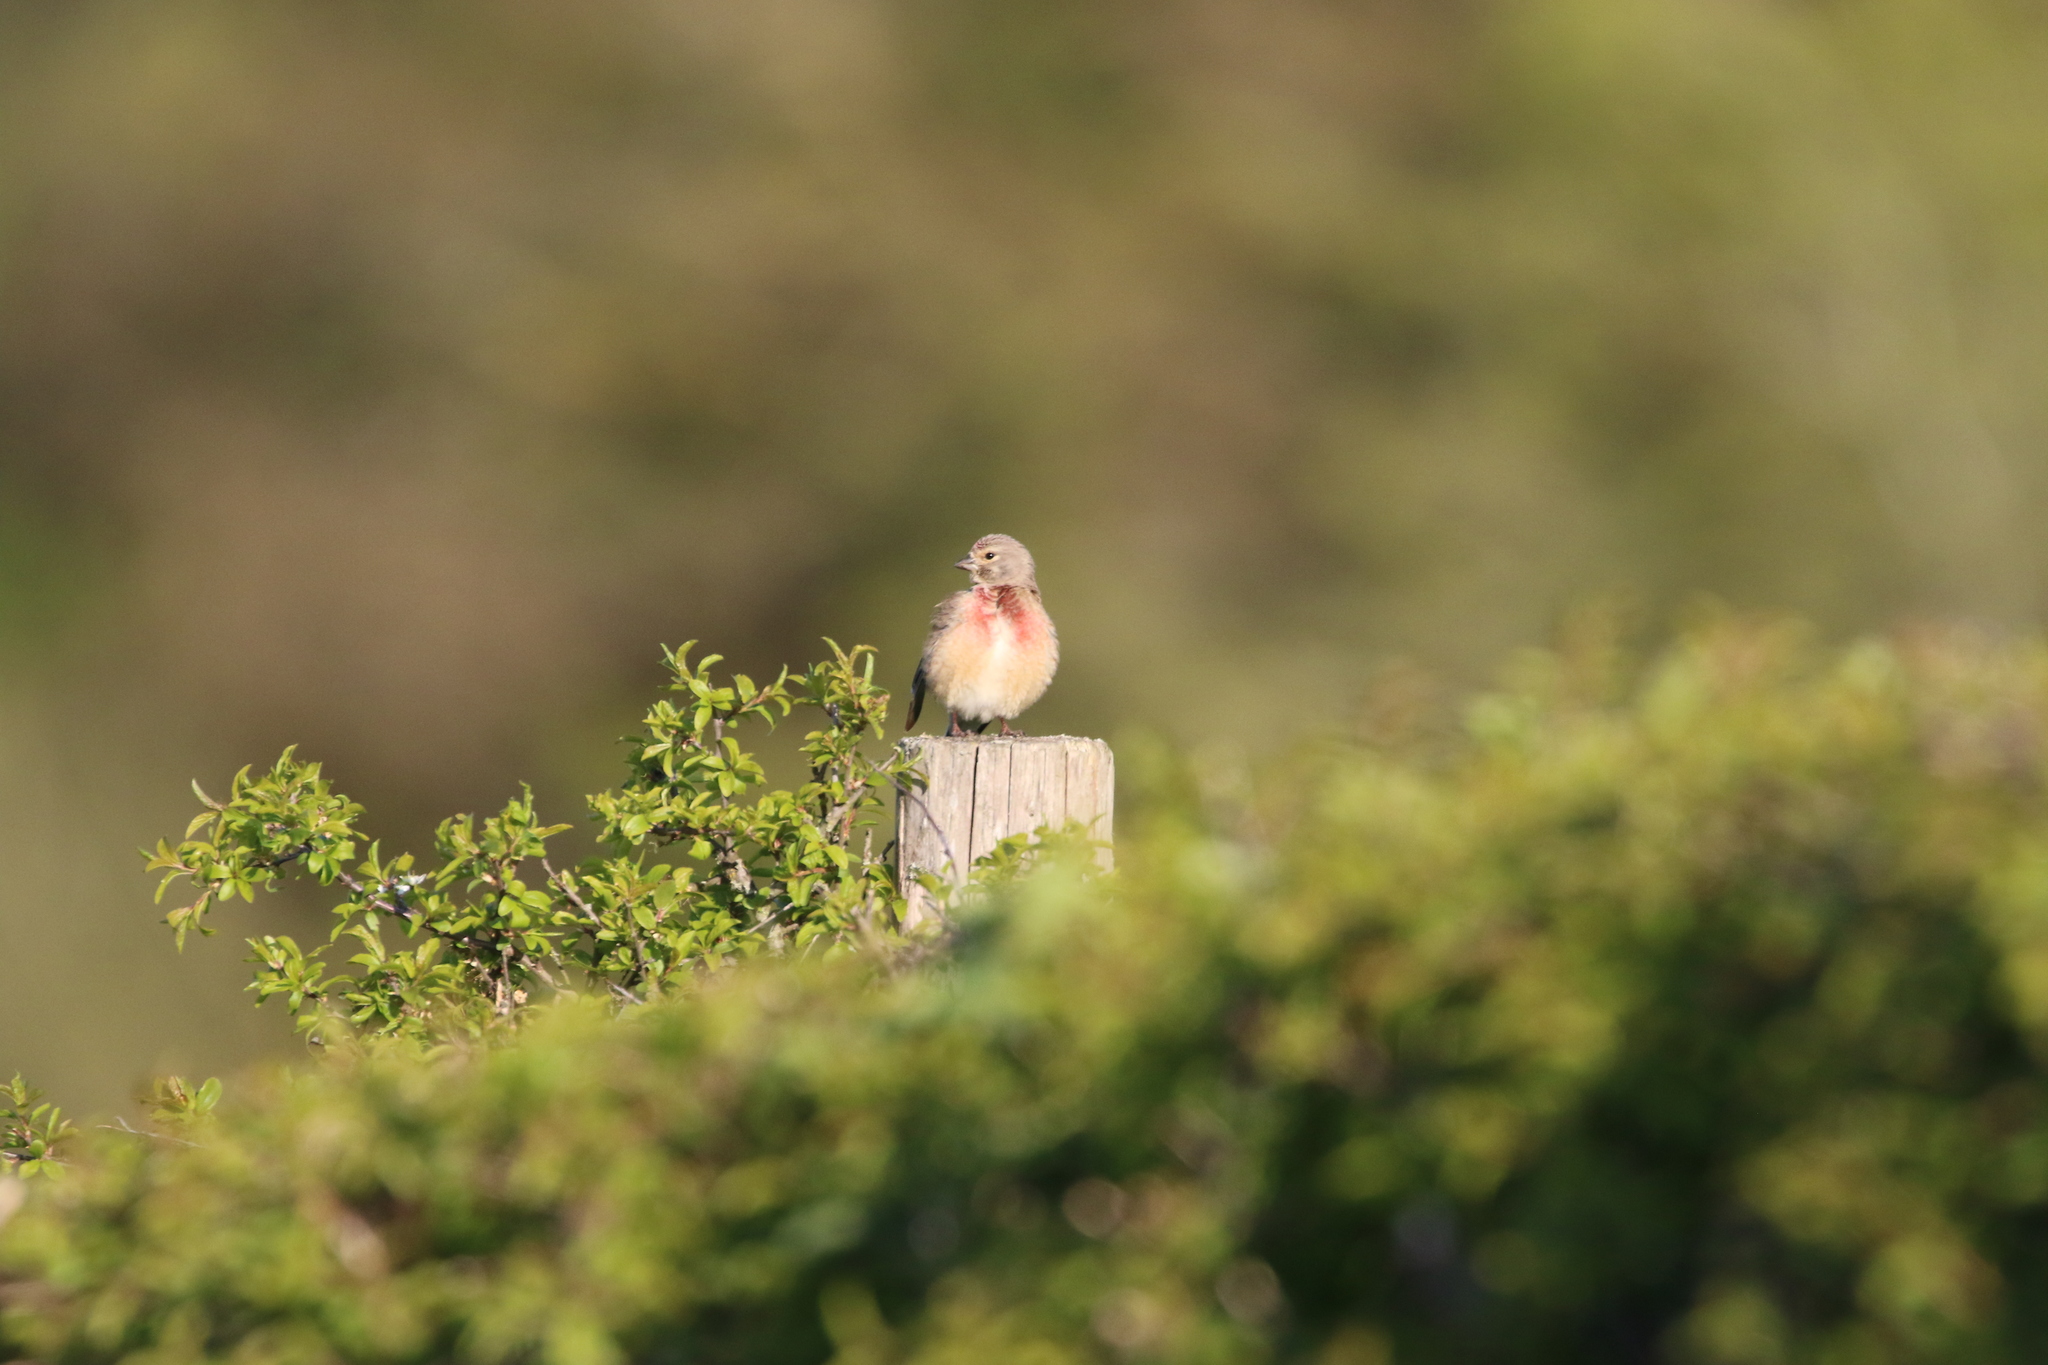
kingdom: Animalia
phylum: Chordata
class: Aves
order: Passeriformes
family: Fringillidae
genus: Linaria
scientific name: Linaria cannabina
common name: Common linnet
